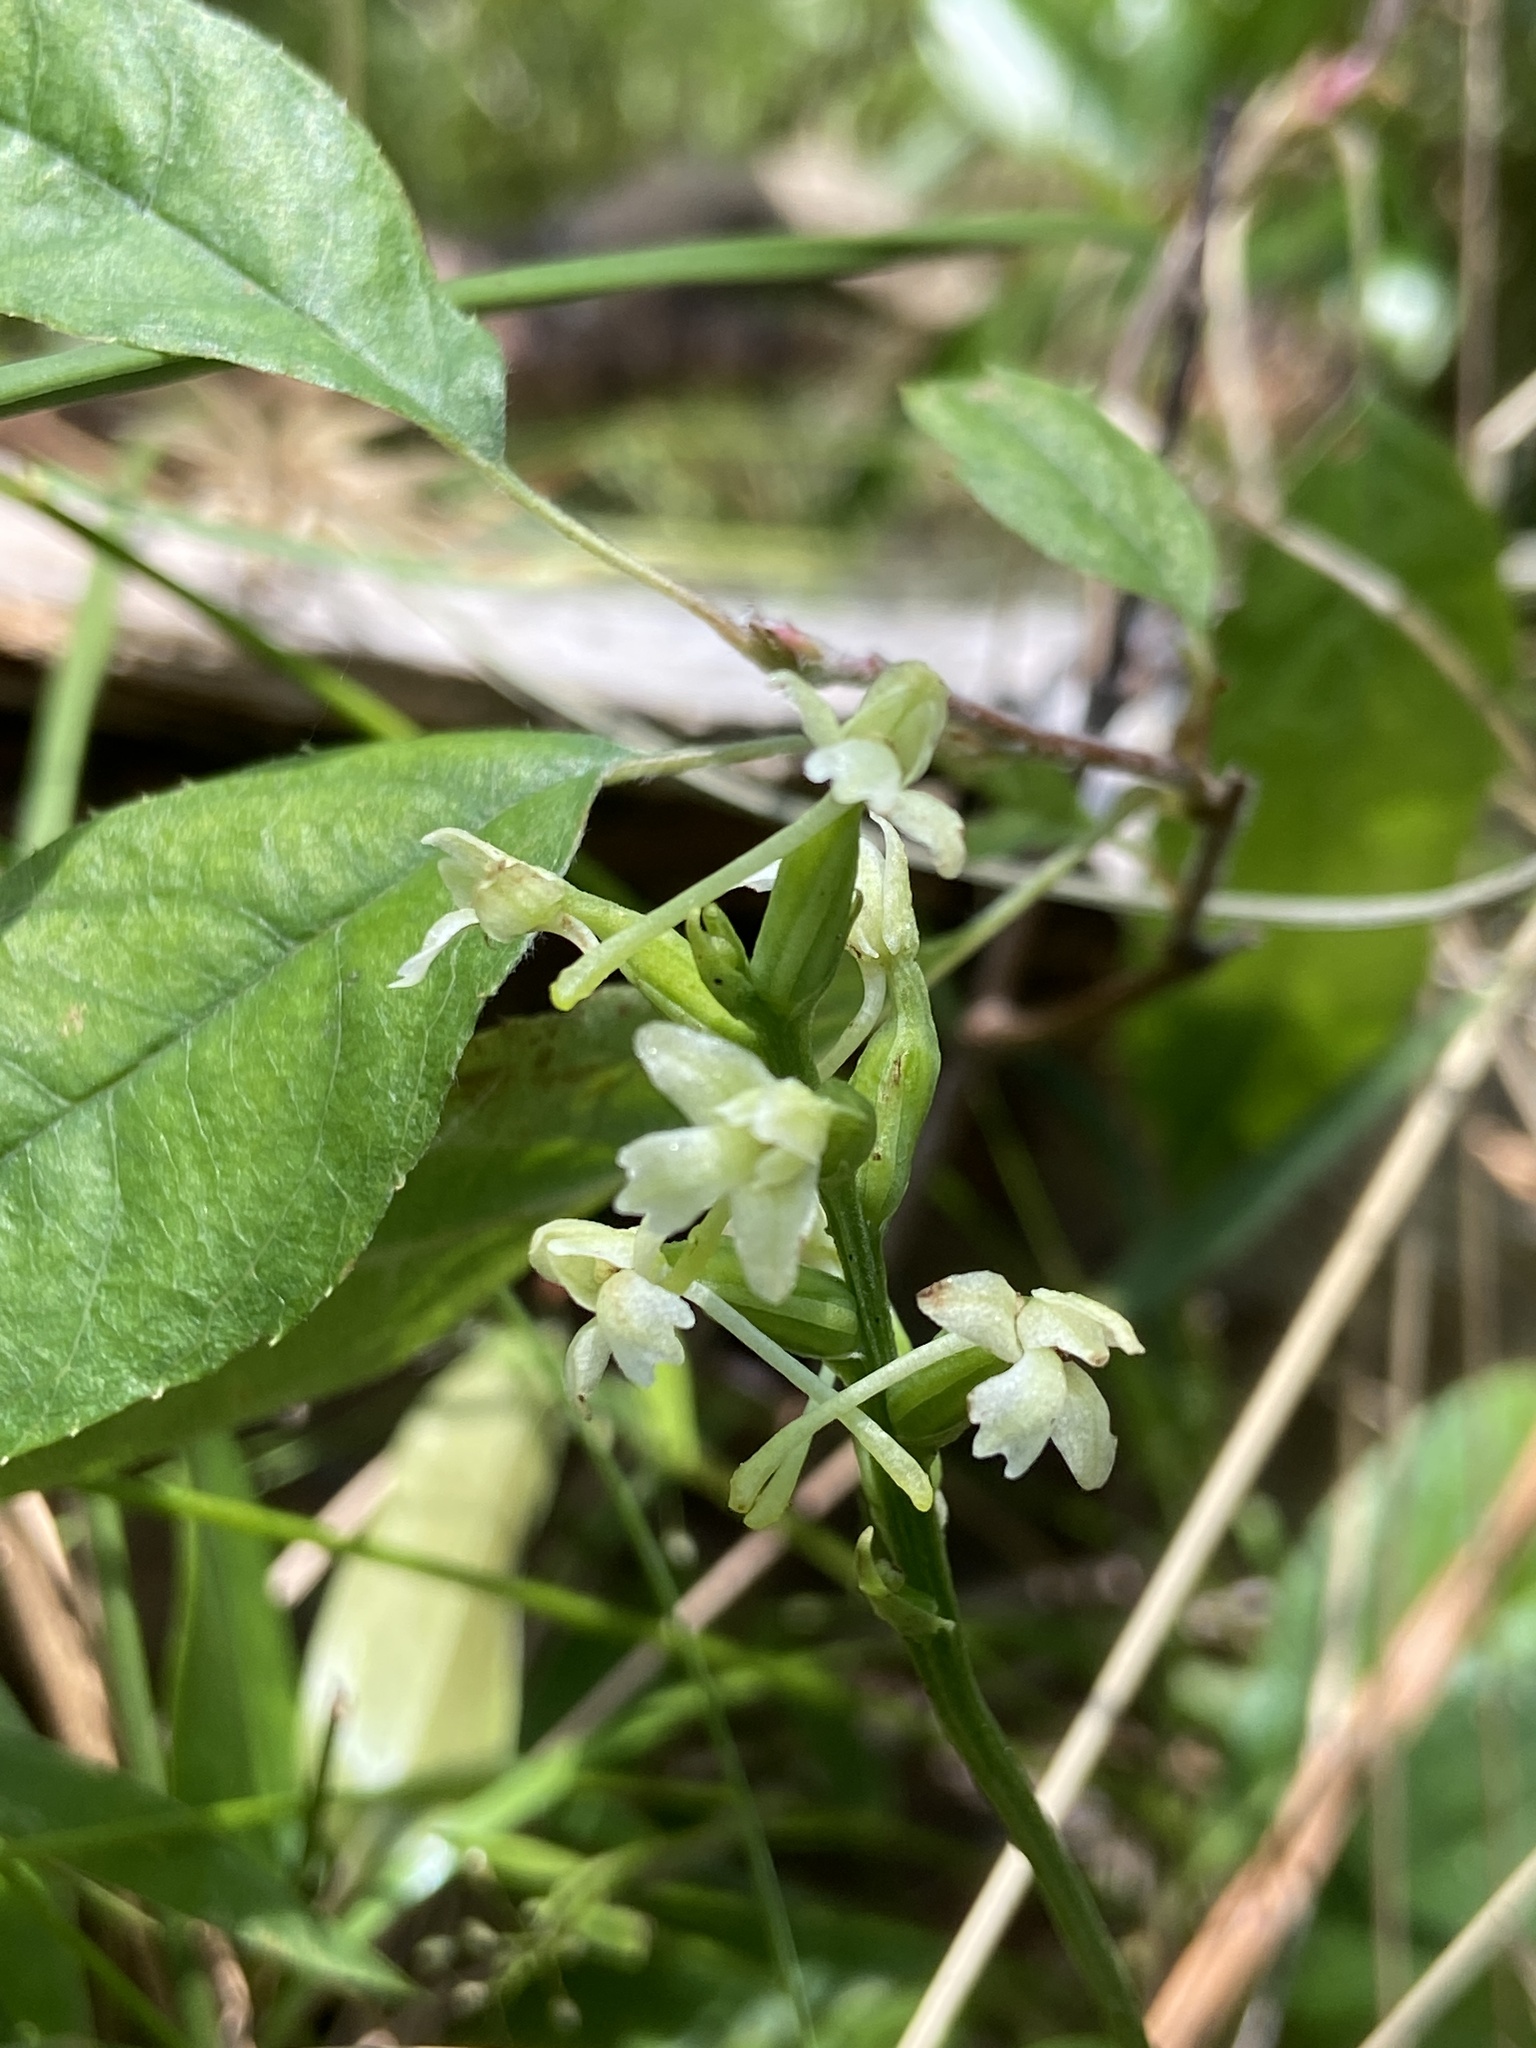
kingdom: Plantae
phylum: Tracheophyta
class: Liliopsida
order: Asparagales
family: Orchidaceae
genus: Platanthera
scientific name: Platanthera clavellata
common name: Club-spur orchid
